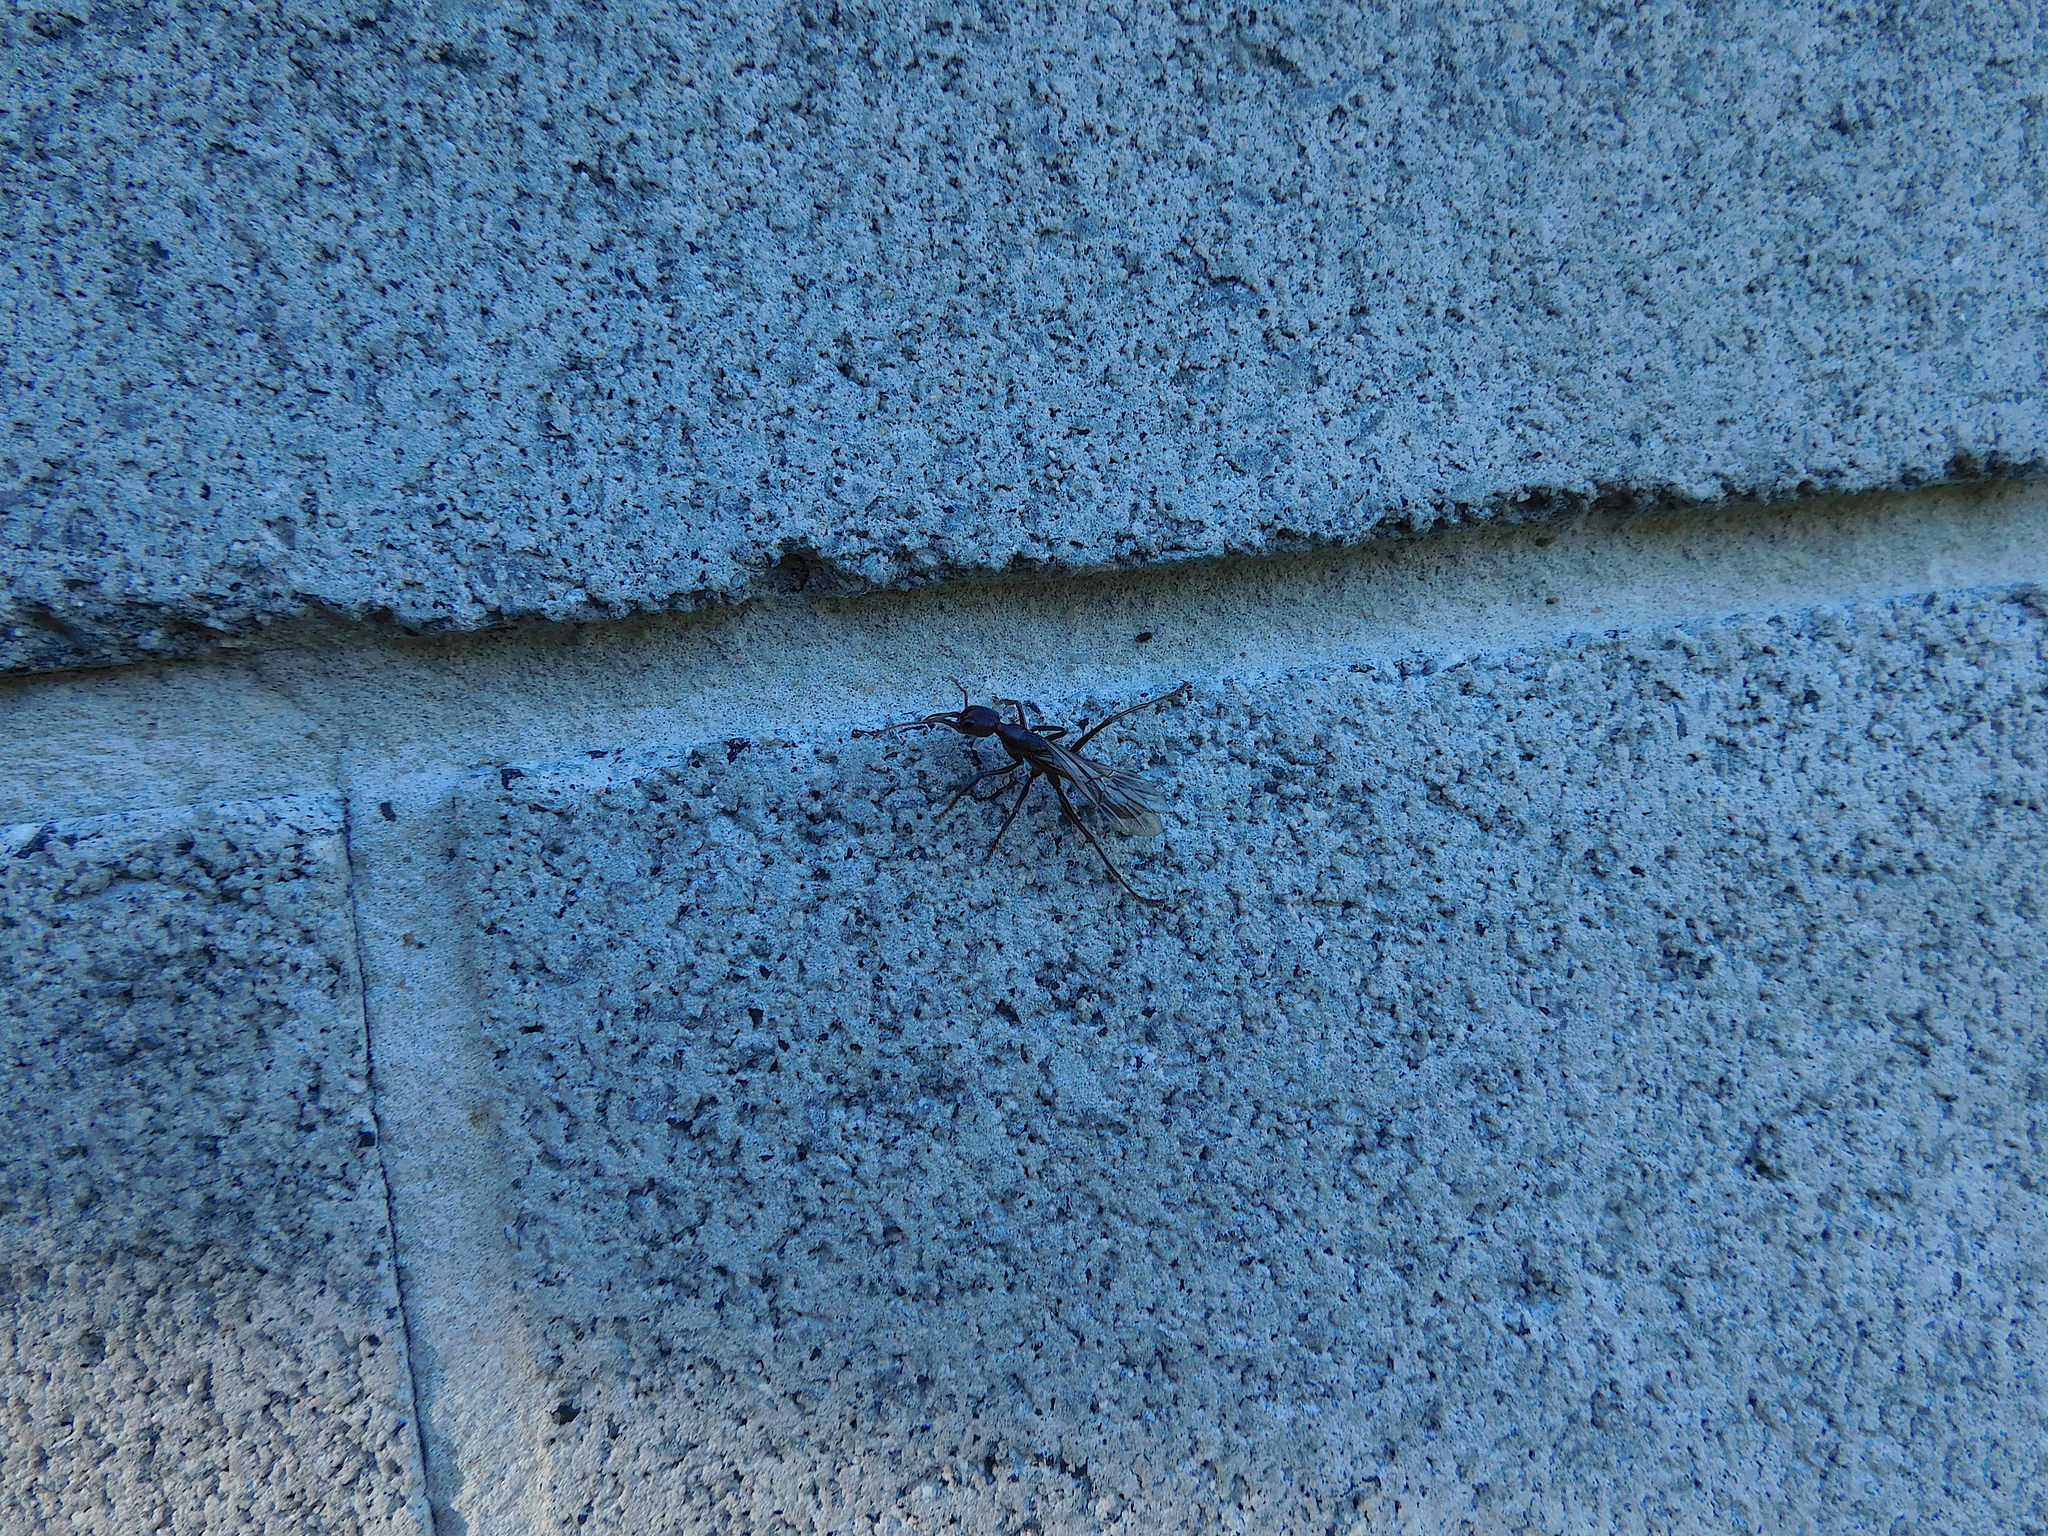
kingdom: Animalia
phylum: Arthropoda
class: Insecta
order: Hymenoptera
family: Formicidae
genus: Myrmecia
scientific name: Myrmecia forficata
